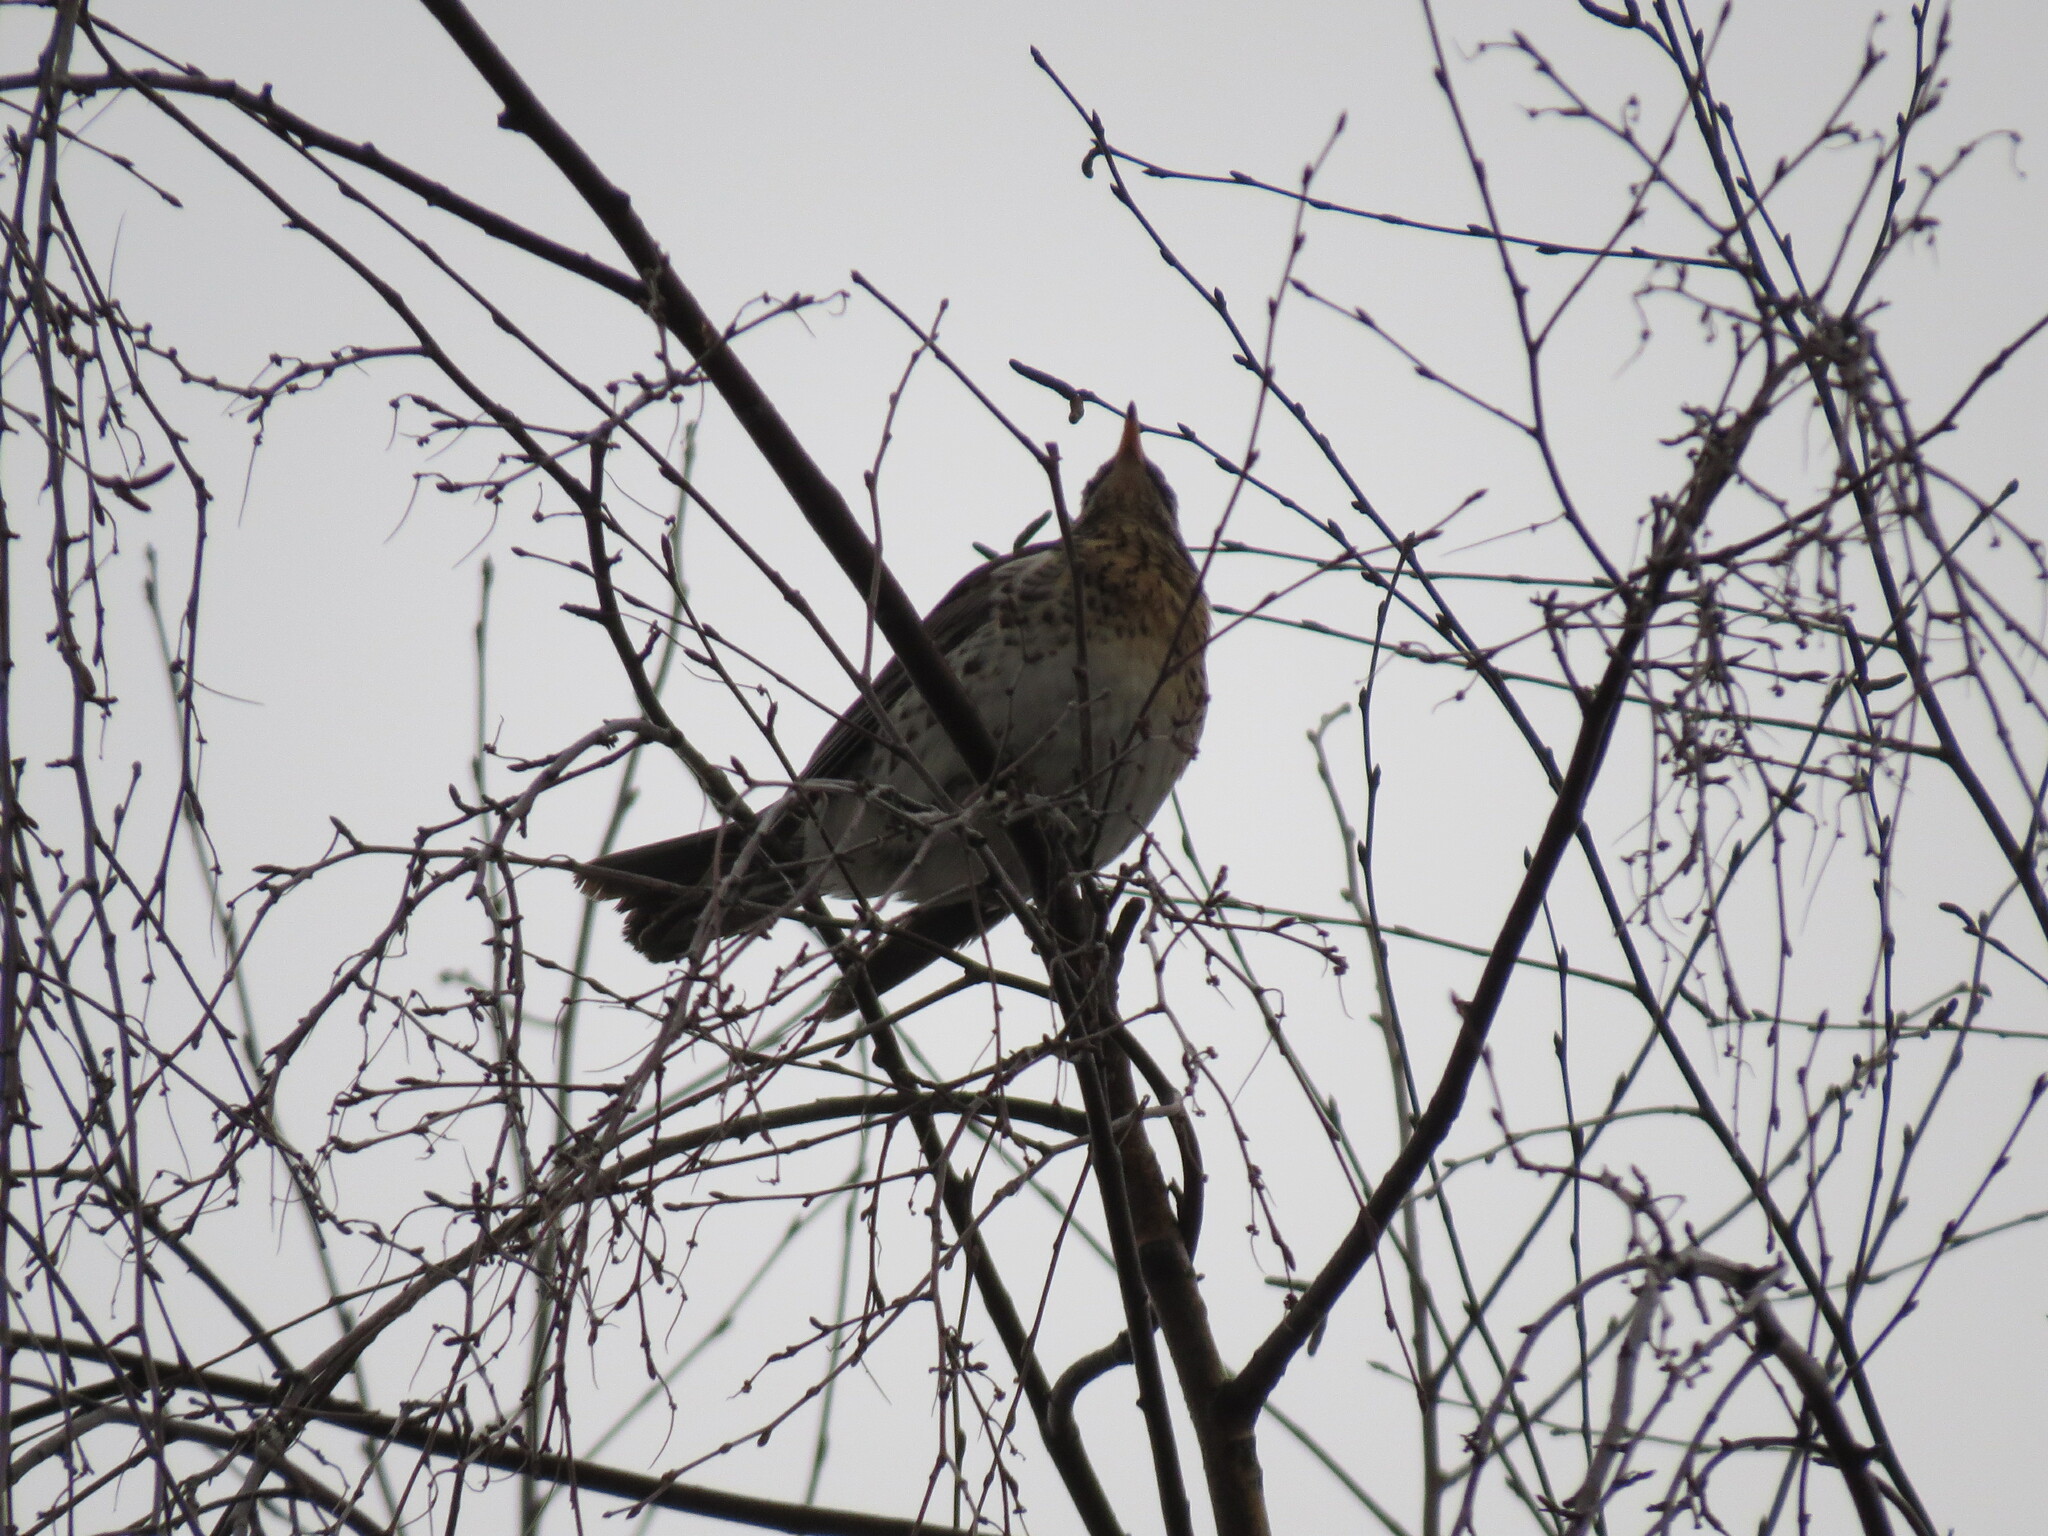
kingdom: Animalia
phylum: Chordata
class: Aves
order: Passeriformes
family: Turdidae
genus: Turdus
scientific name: Turdus pilaris
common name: Fieldfare
